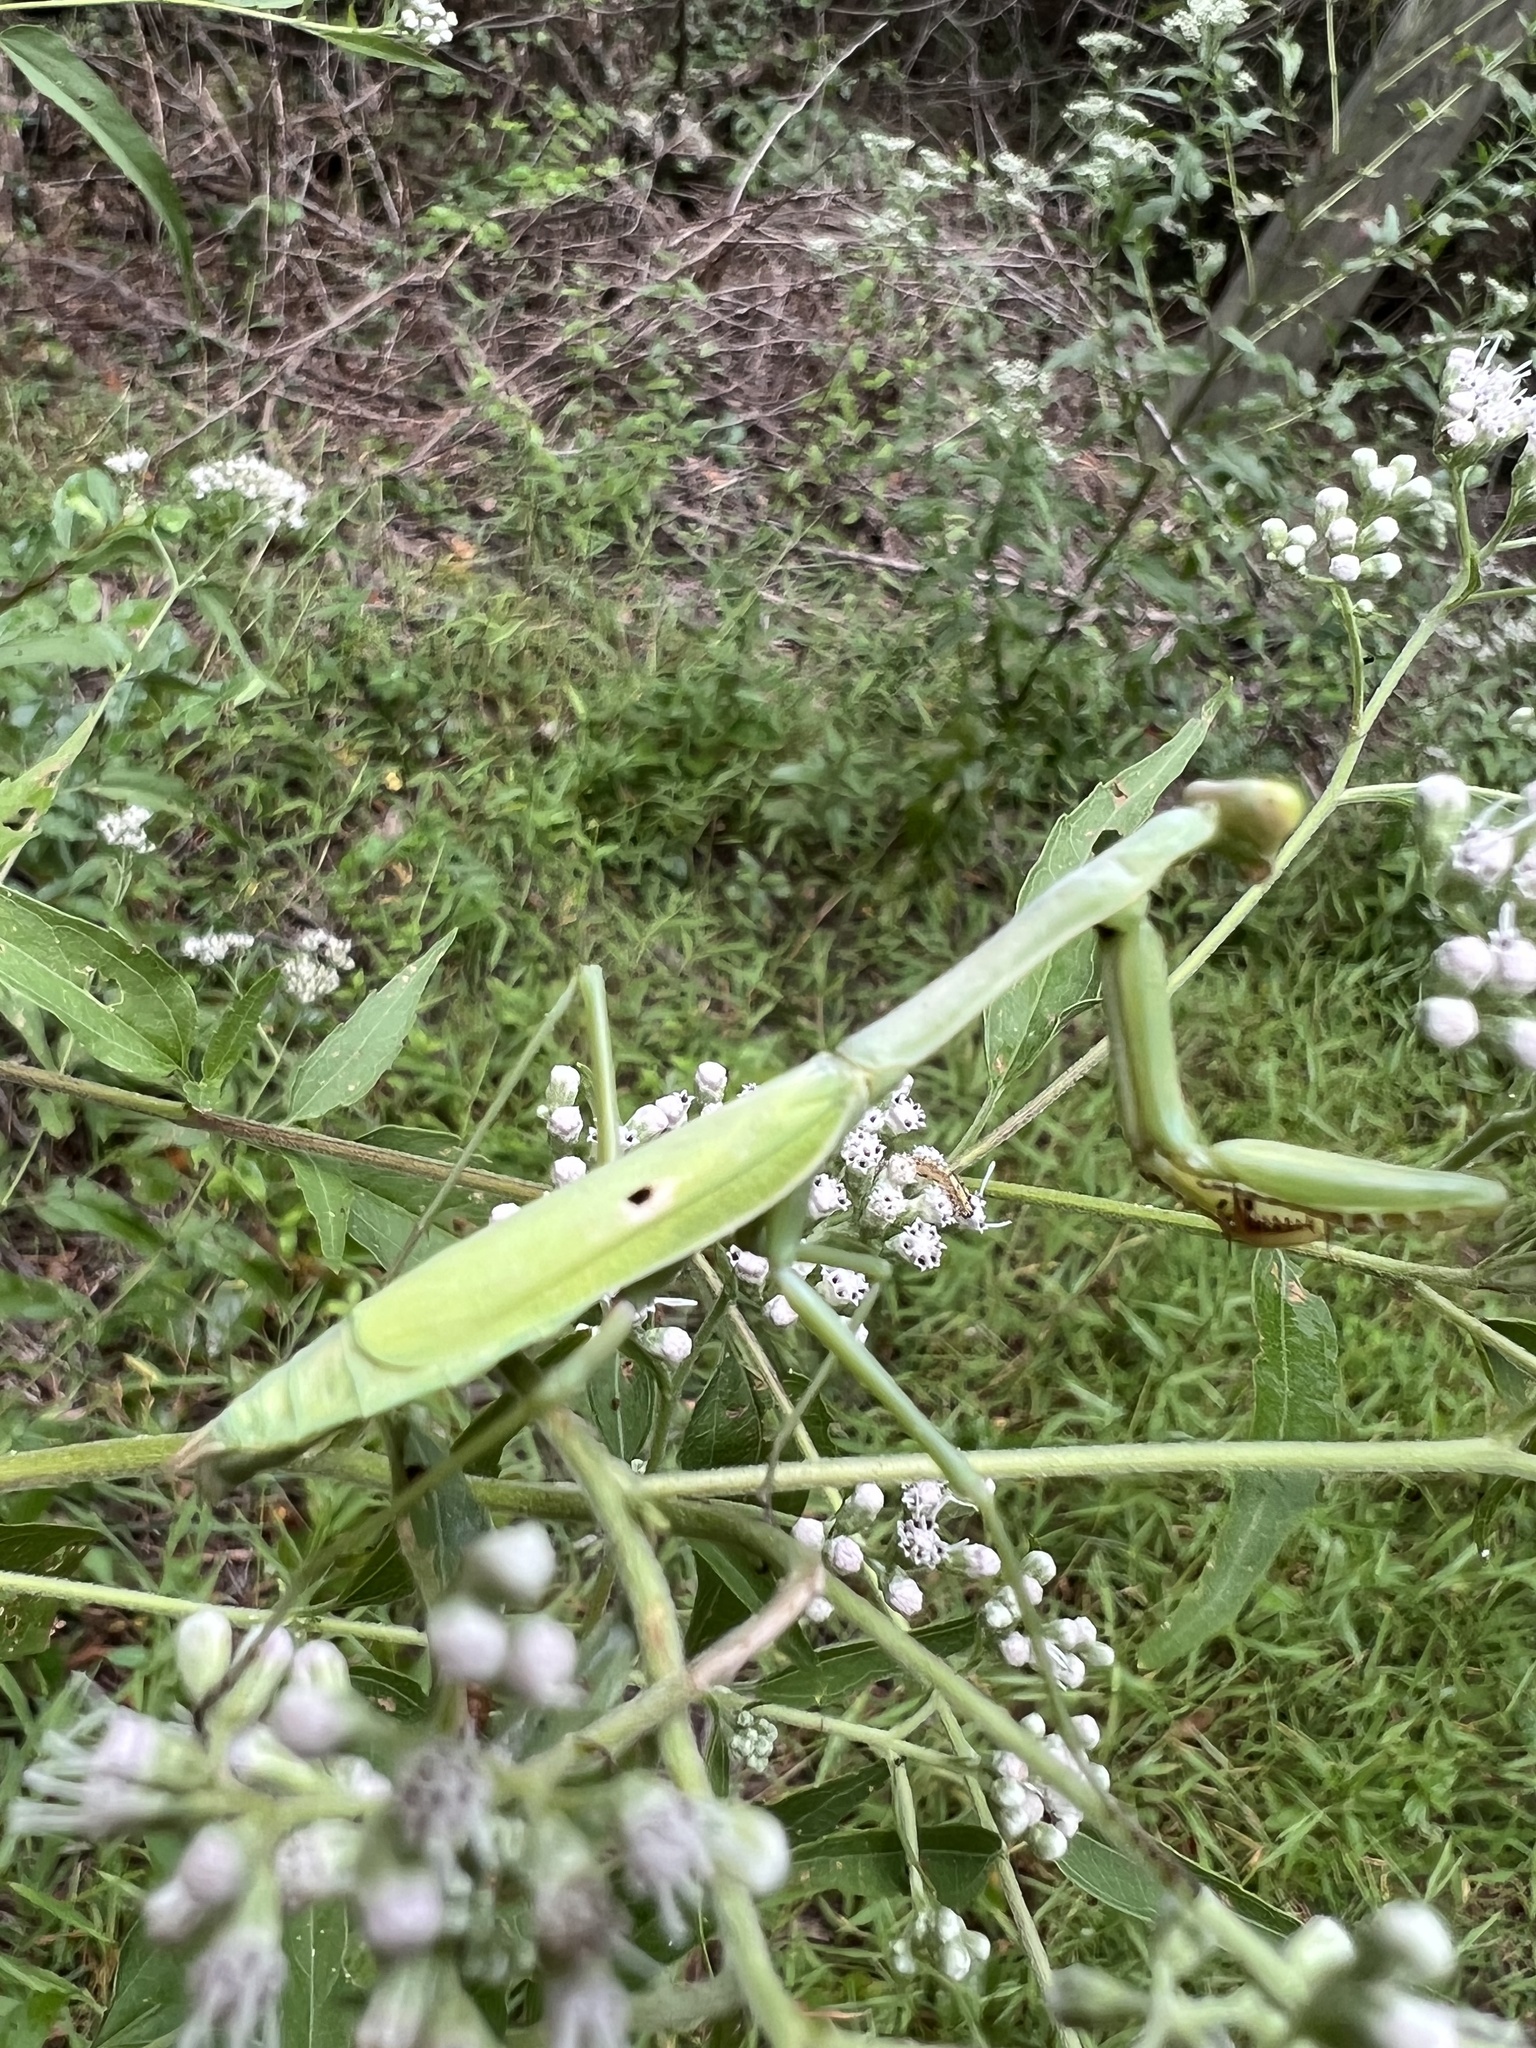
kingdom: Animalia
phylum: Arthropoda
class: Insecta
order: Mantodea
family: Mantidae
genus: Stagmomantis
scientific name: Stagmomantis carolina
